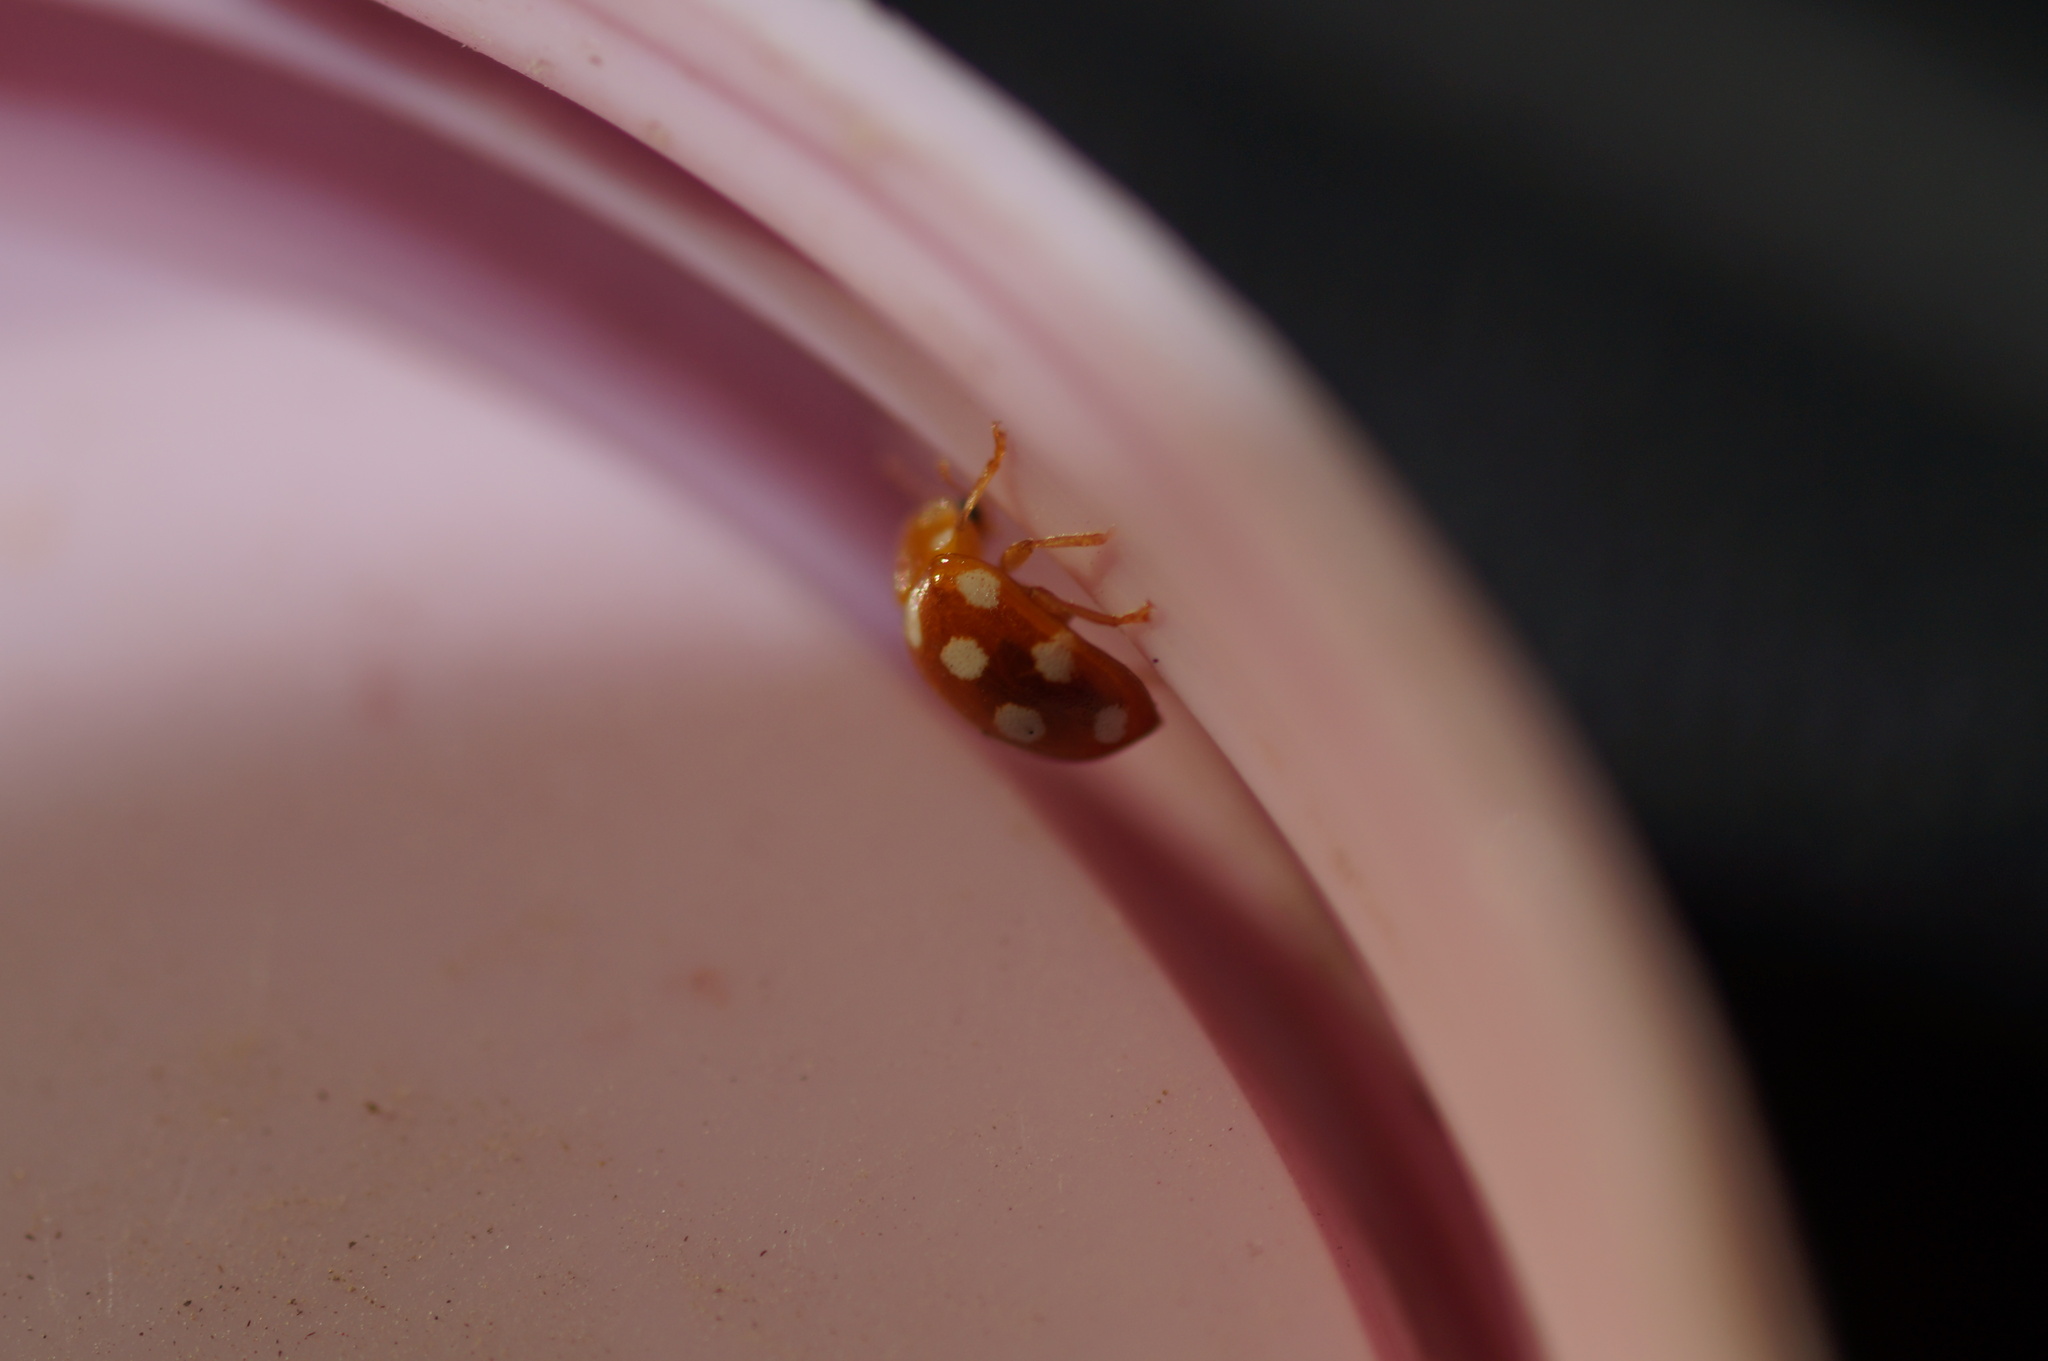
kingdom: Animalia
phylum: Arthropoda
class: Insecta
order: Coleoptera
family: Coccinellidae
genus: Vibidia
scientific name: Vibidia duodecimguttata
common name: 12-spot ladybird
